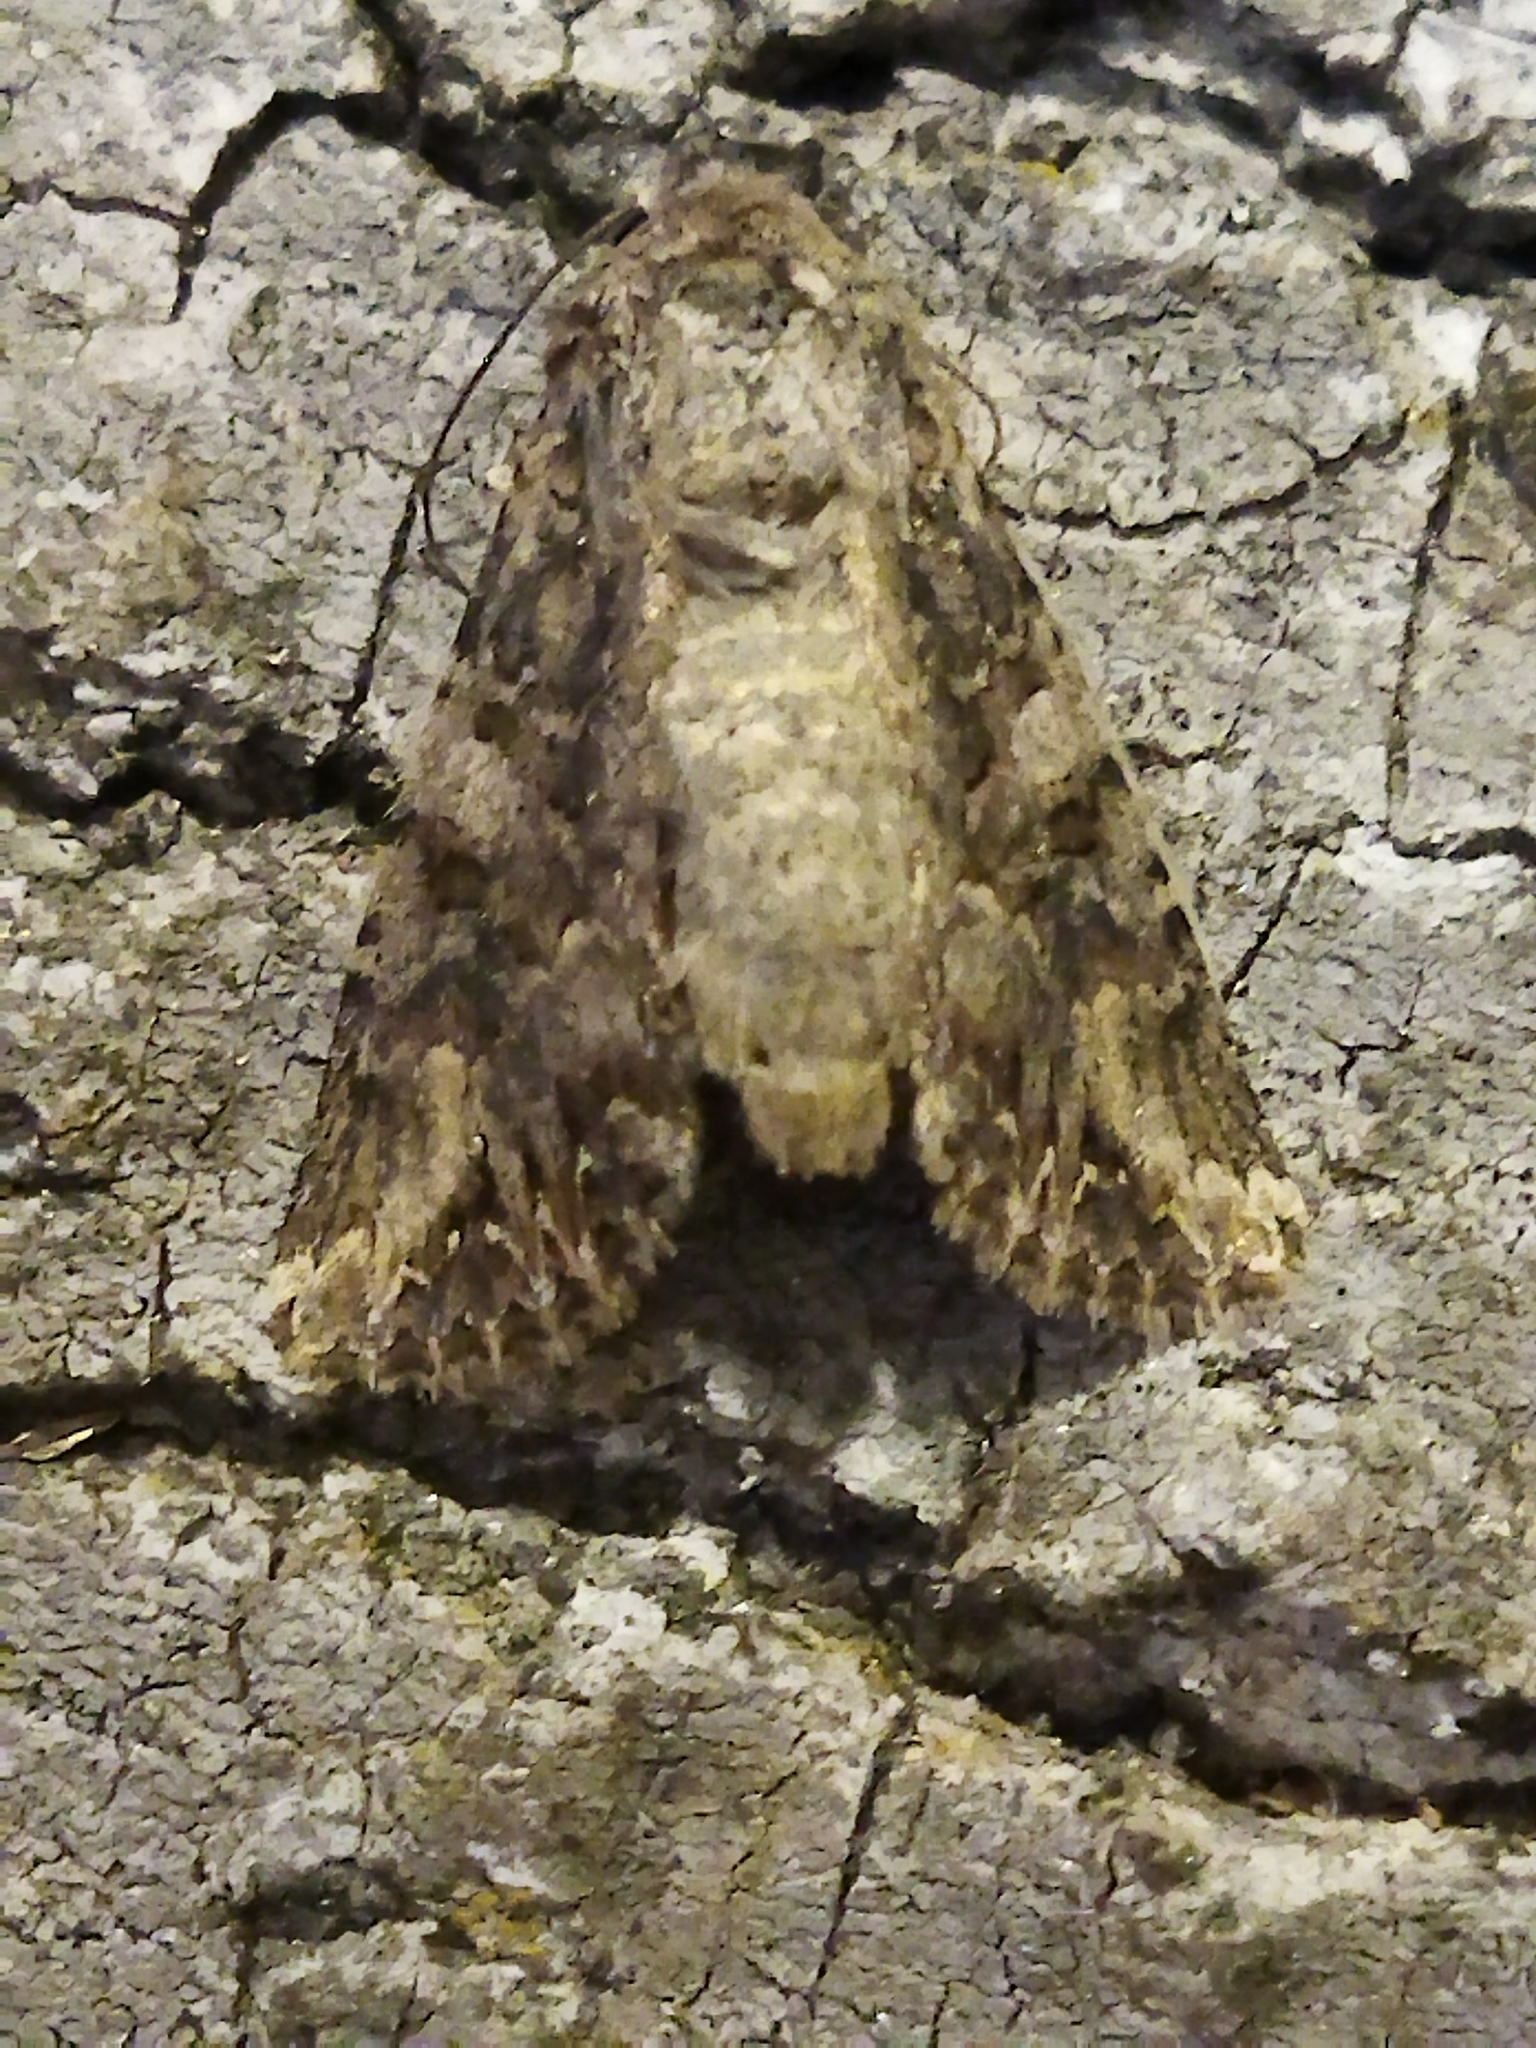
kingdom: Animalia
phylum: Arthropoda
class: Insecta
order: Lepidoptera
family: Noctuidae
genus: Anarta
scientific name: Anarta trifolii
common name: Clover cutworm moth
